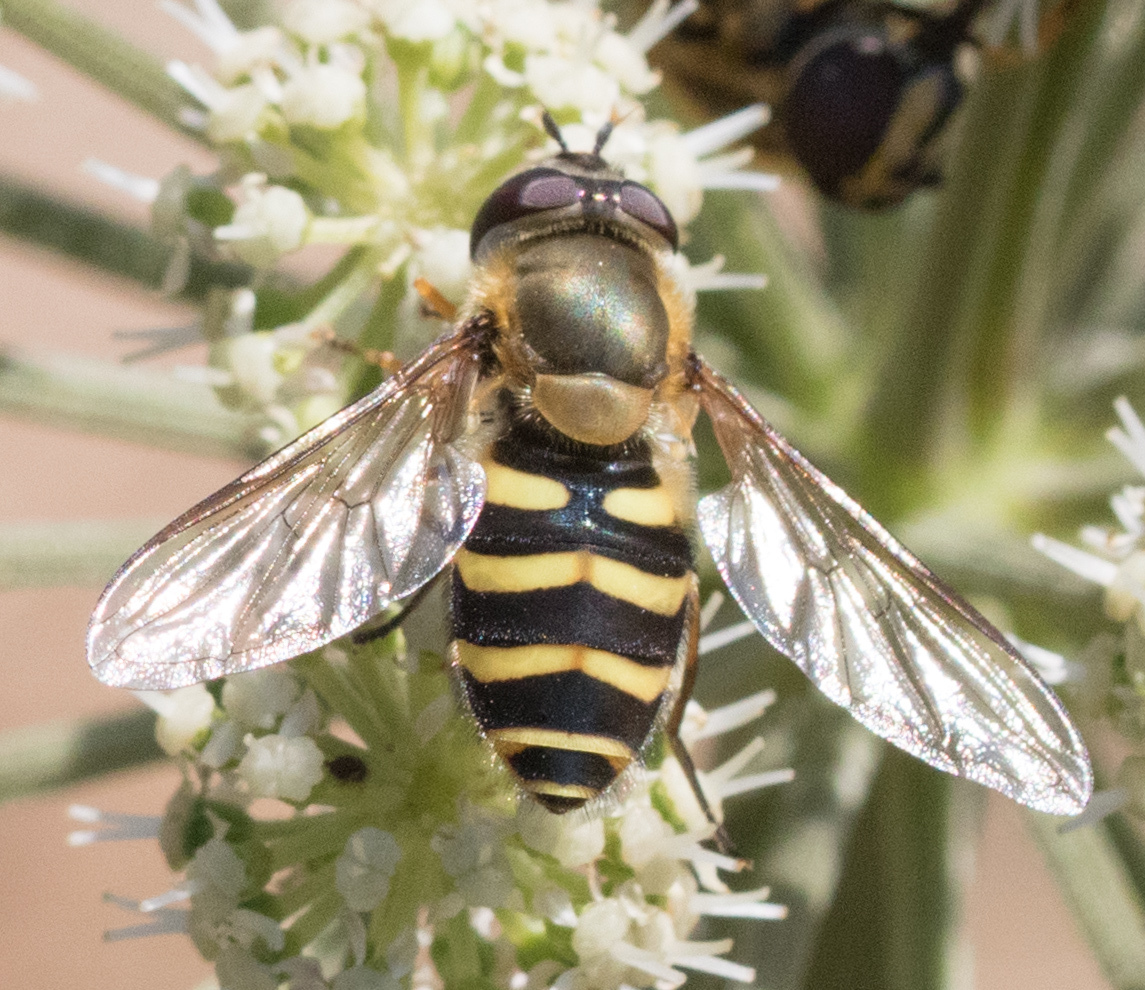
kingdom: Animalia
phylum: Arthropoda
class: Insecta
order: Diptera
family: Syrphidae
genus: Syrphus
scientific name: Syrphus
